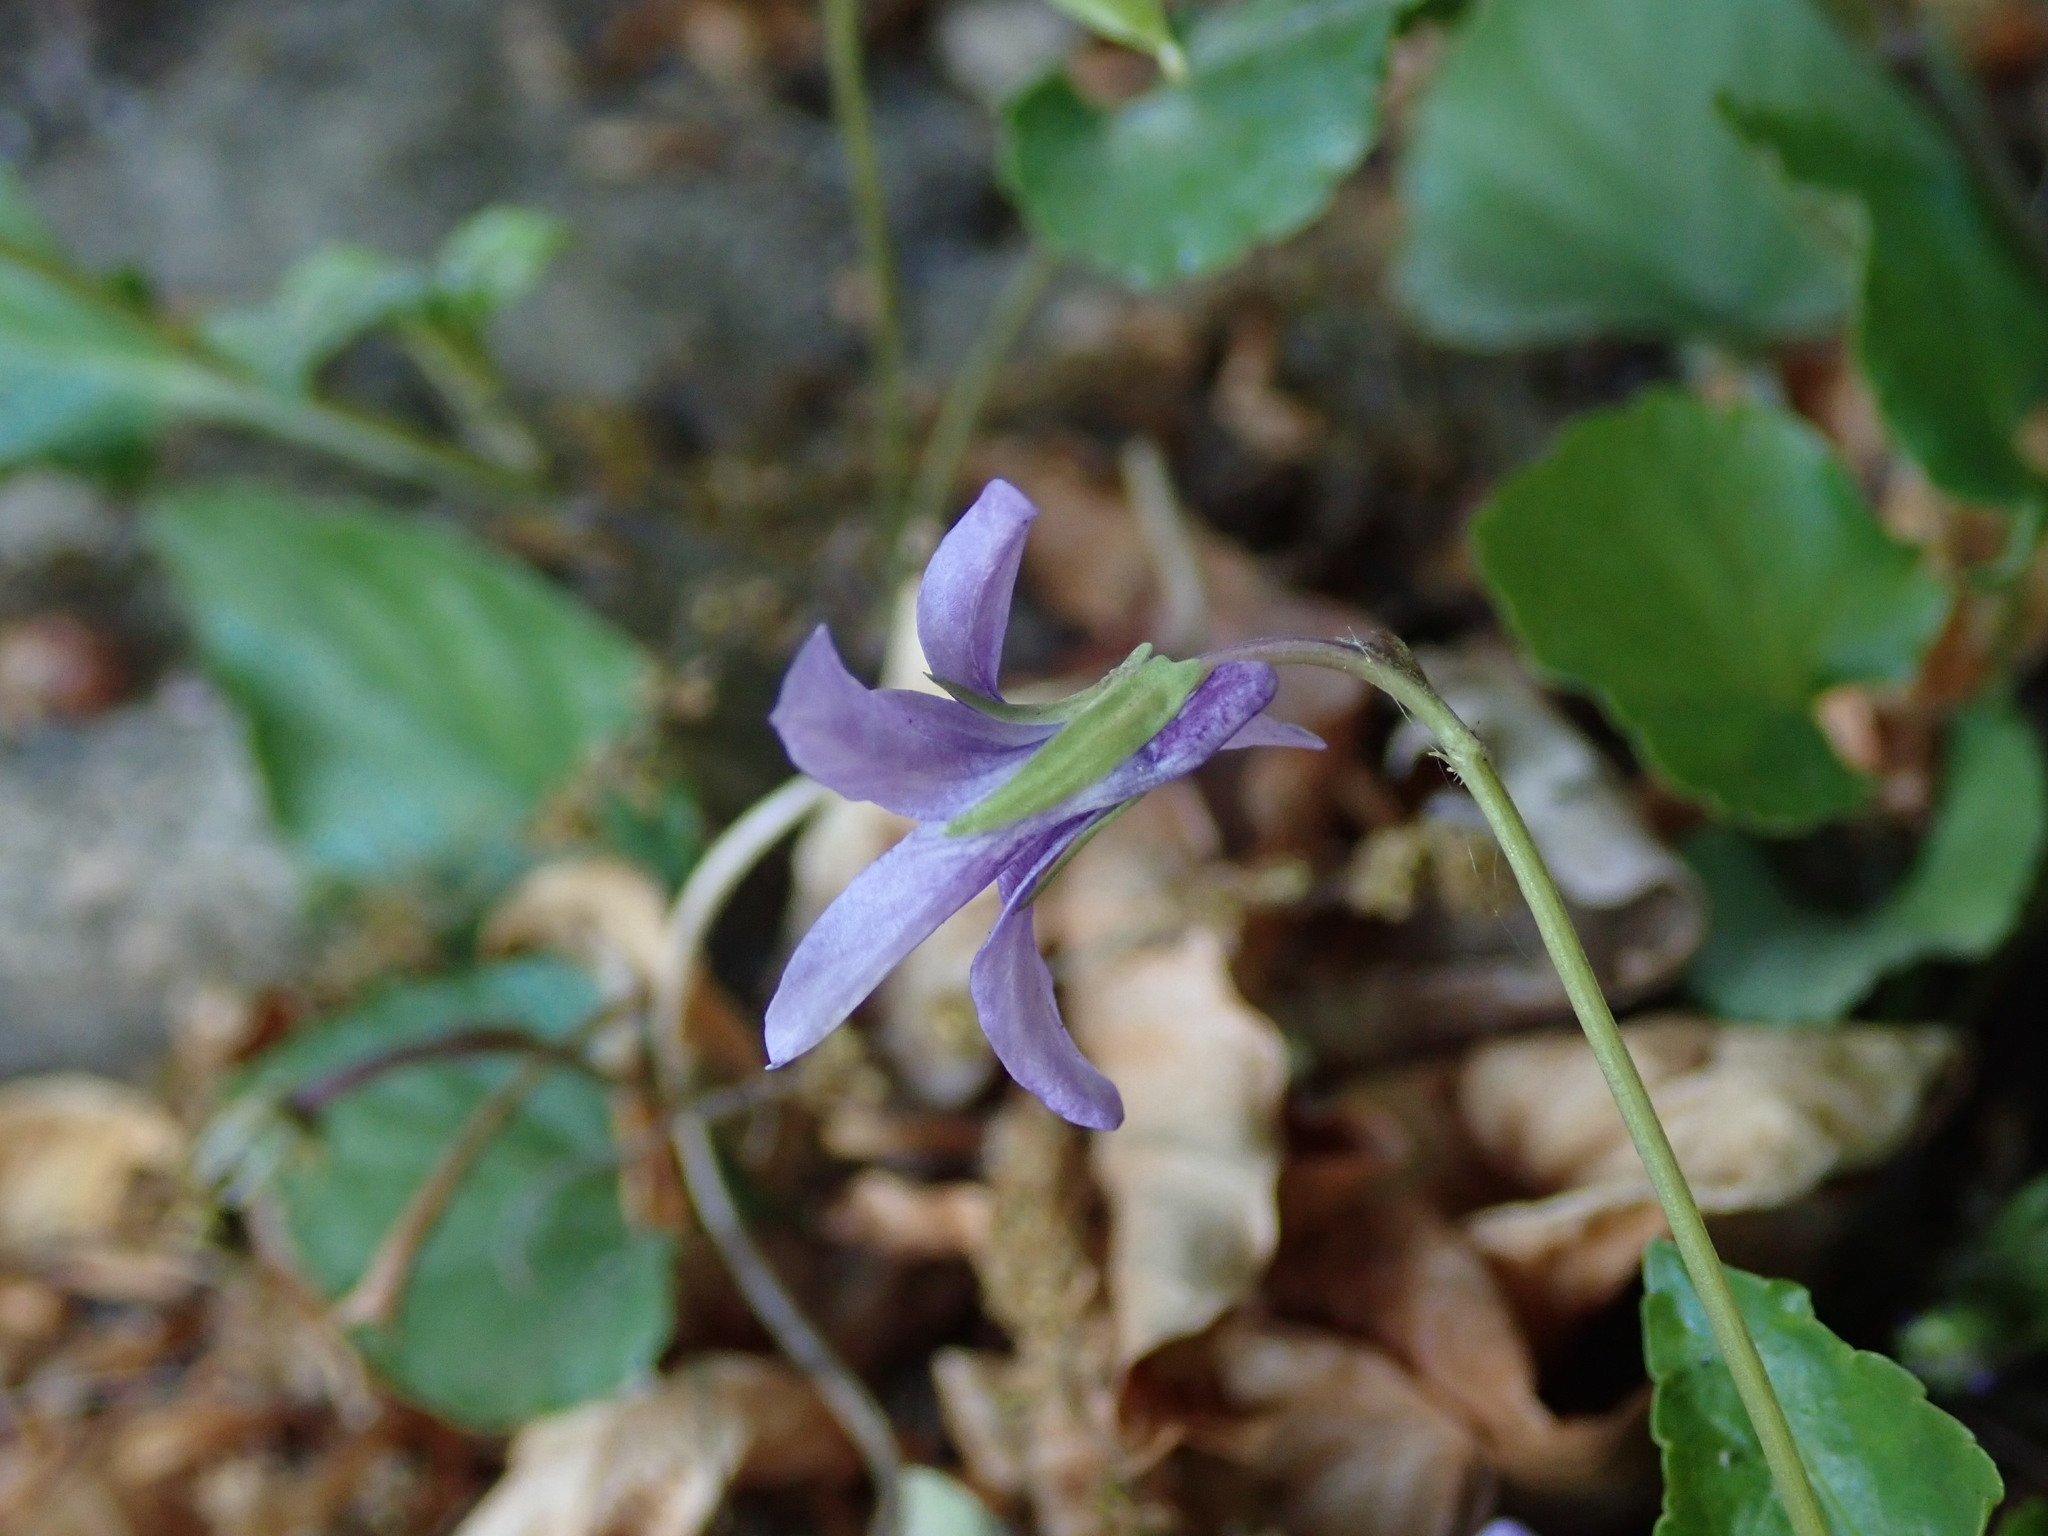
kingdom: Plantae
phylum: Tracheophyta
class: Magnoliopsida
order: Malpighiales
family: Violaceae
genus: Viola
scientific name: Viola reichenbachiana
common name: Early dog-violet
